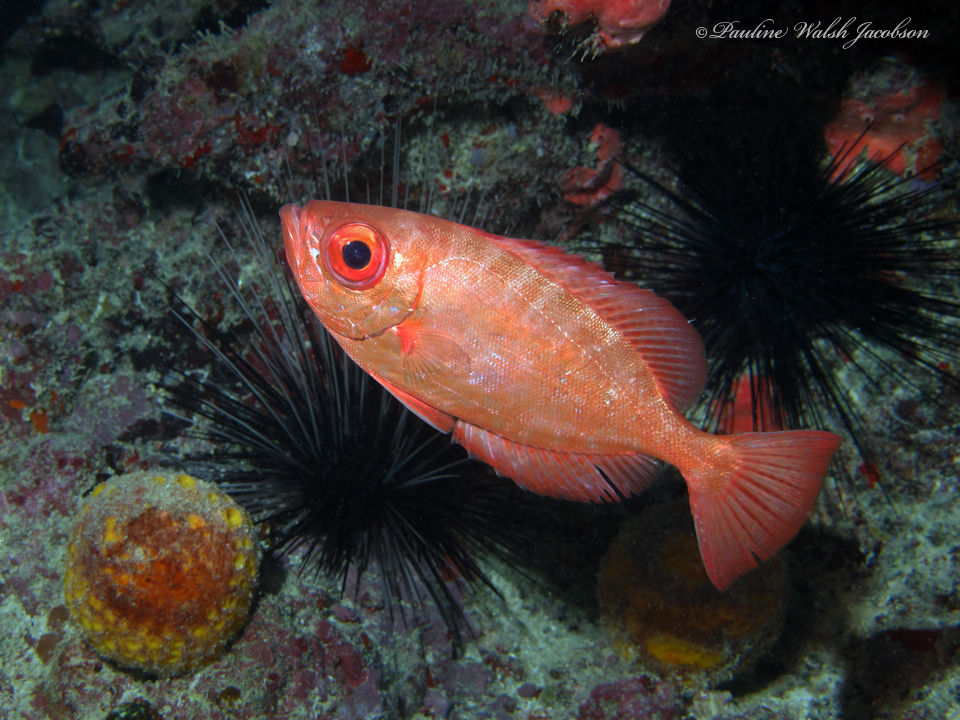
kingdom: Animalia
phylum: Chordata
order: Perciformes
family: Priacanthidae
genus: Heteropriacanthus
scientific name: Heteropriacanthus cruentatus
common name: Glasseye
